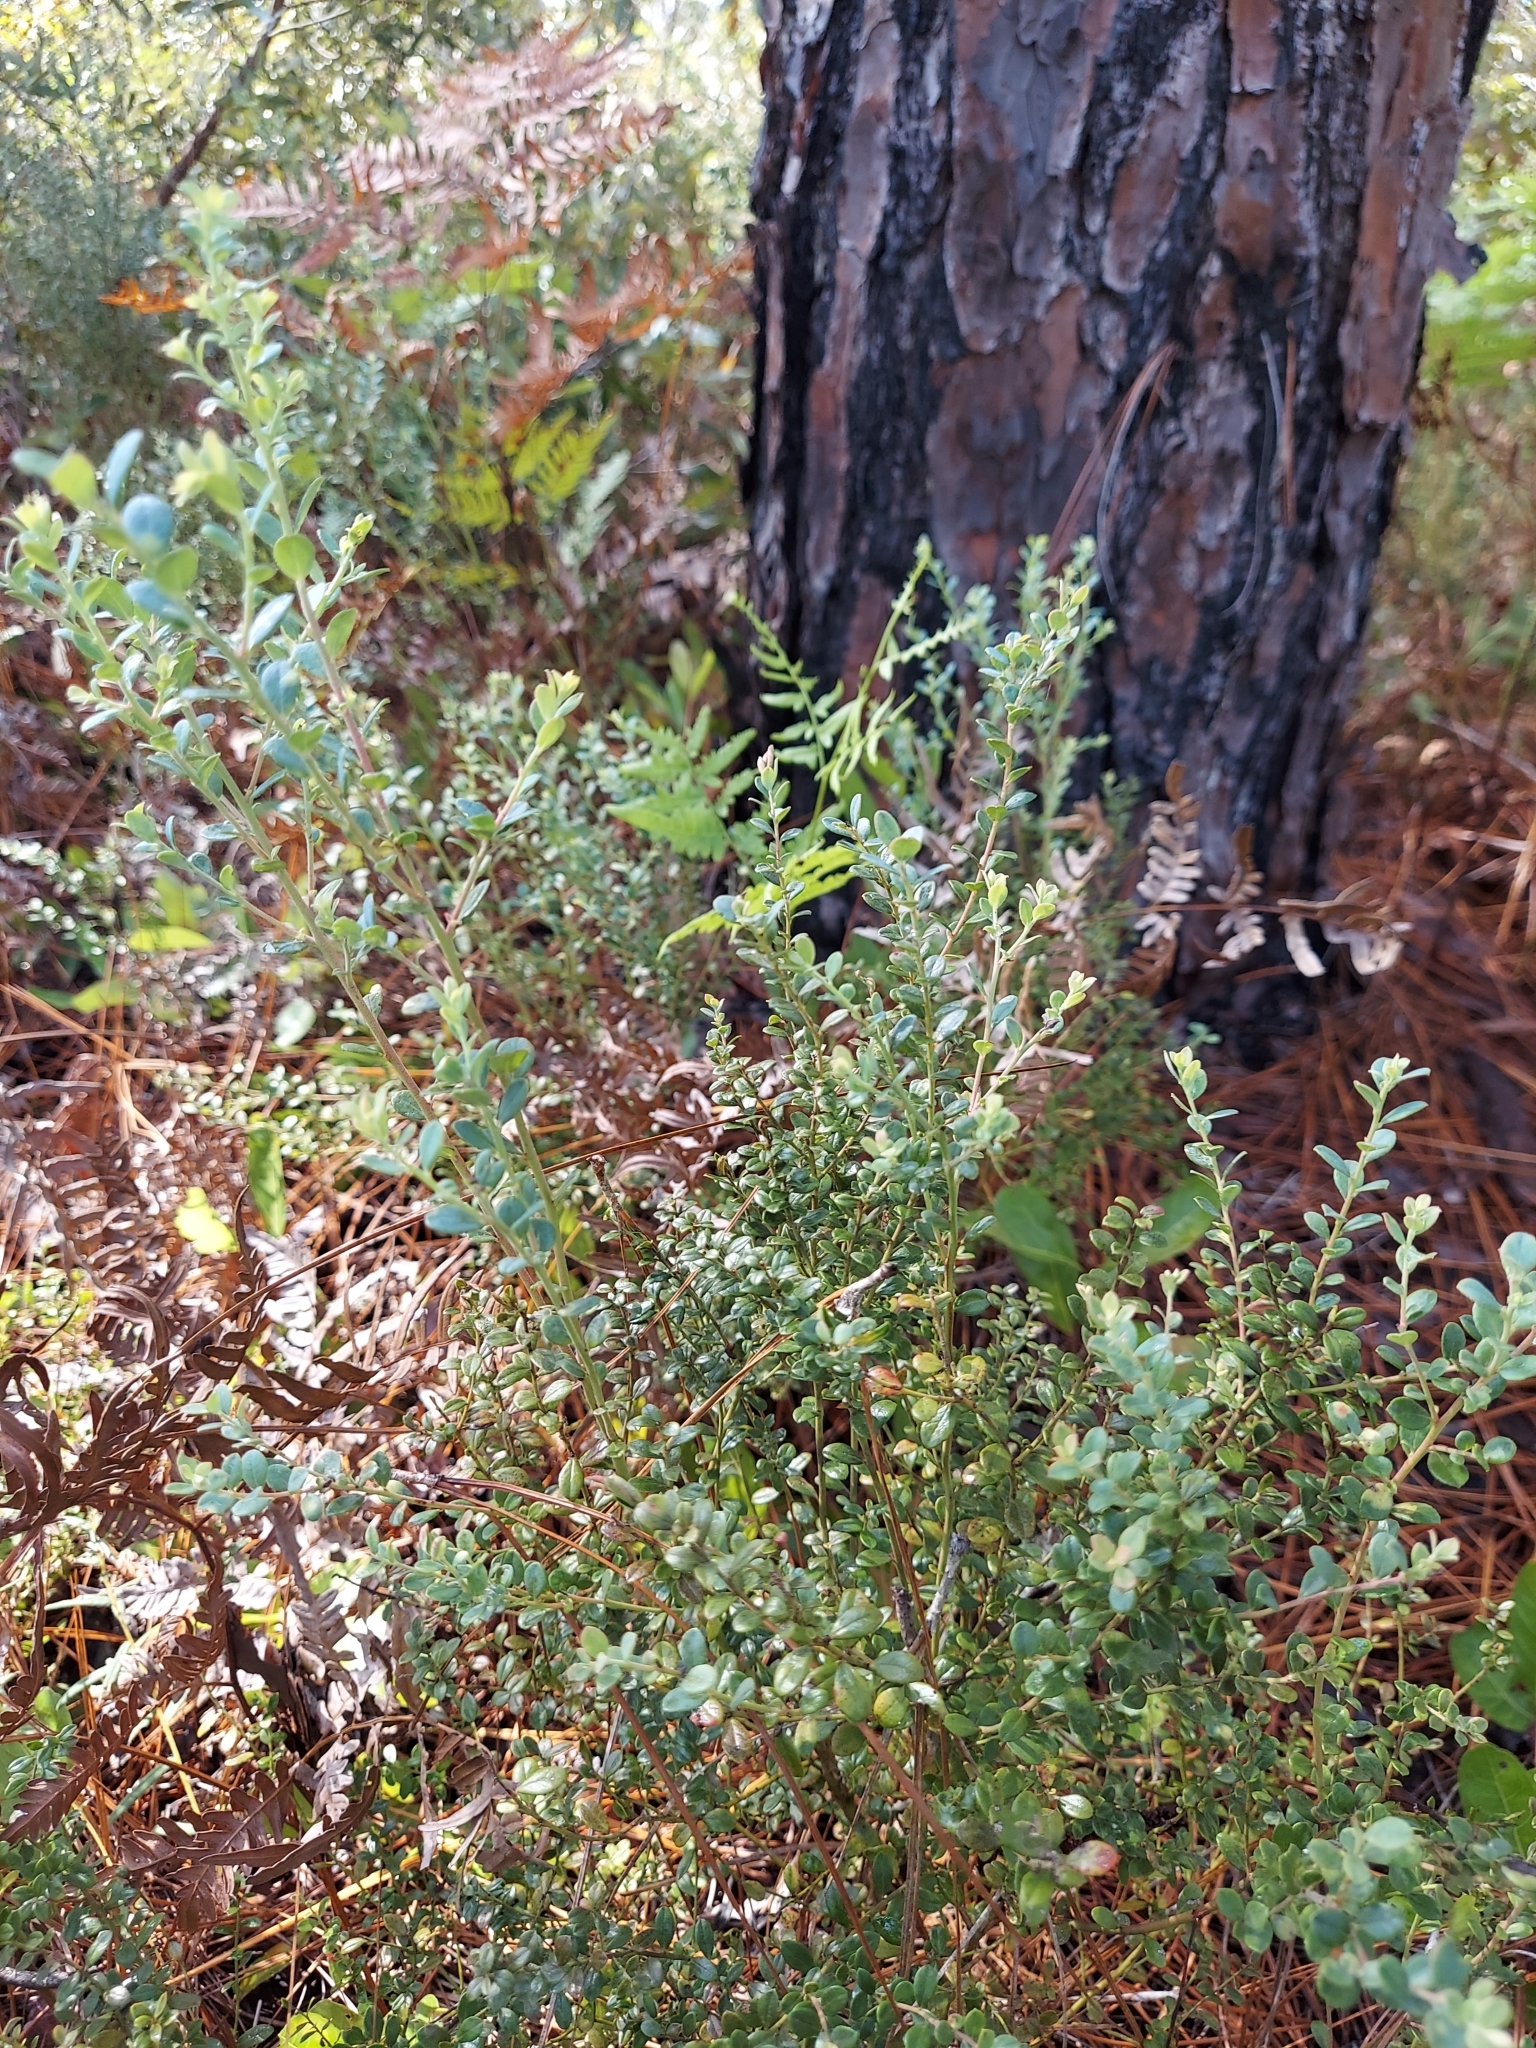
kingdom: Plantae
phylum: Tracheophyta
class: Magnoliopsida
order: Ericales
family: Ericaceae
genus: Vaccinium
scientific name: Vaccinium darrowii
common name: Darrow's blueberry
